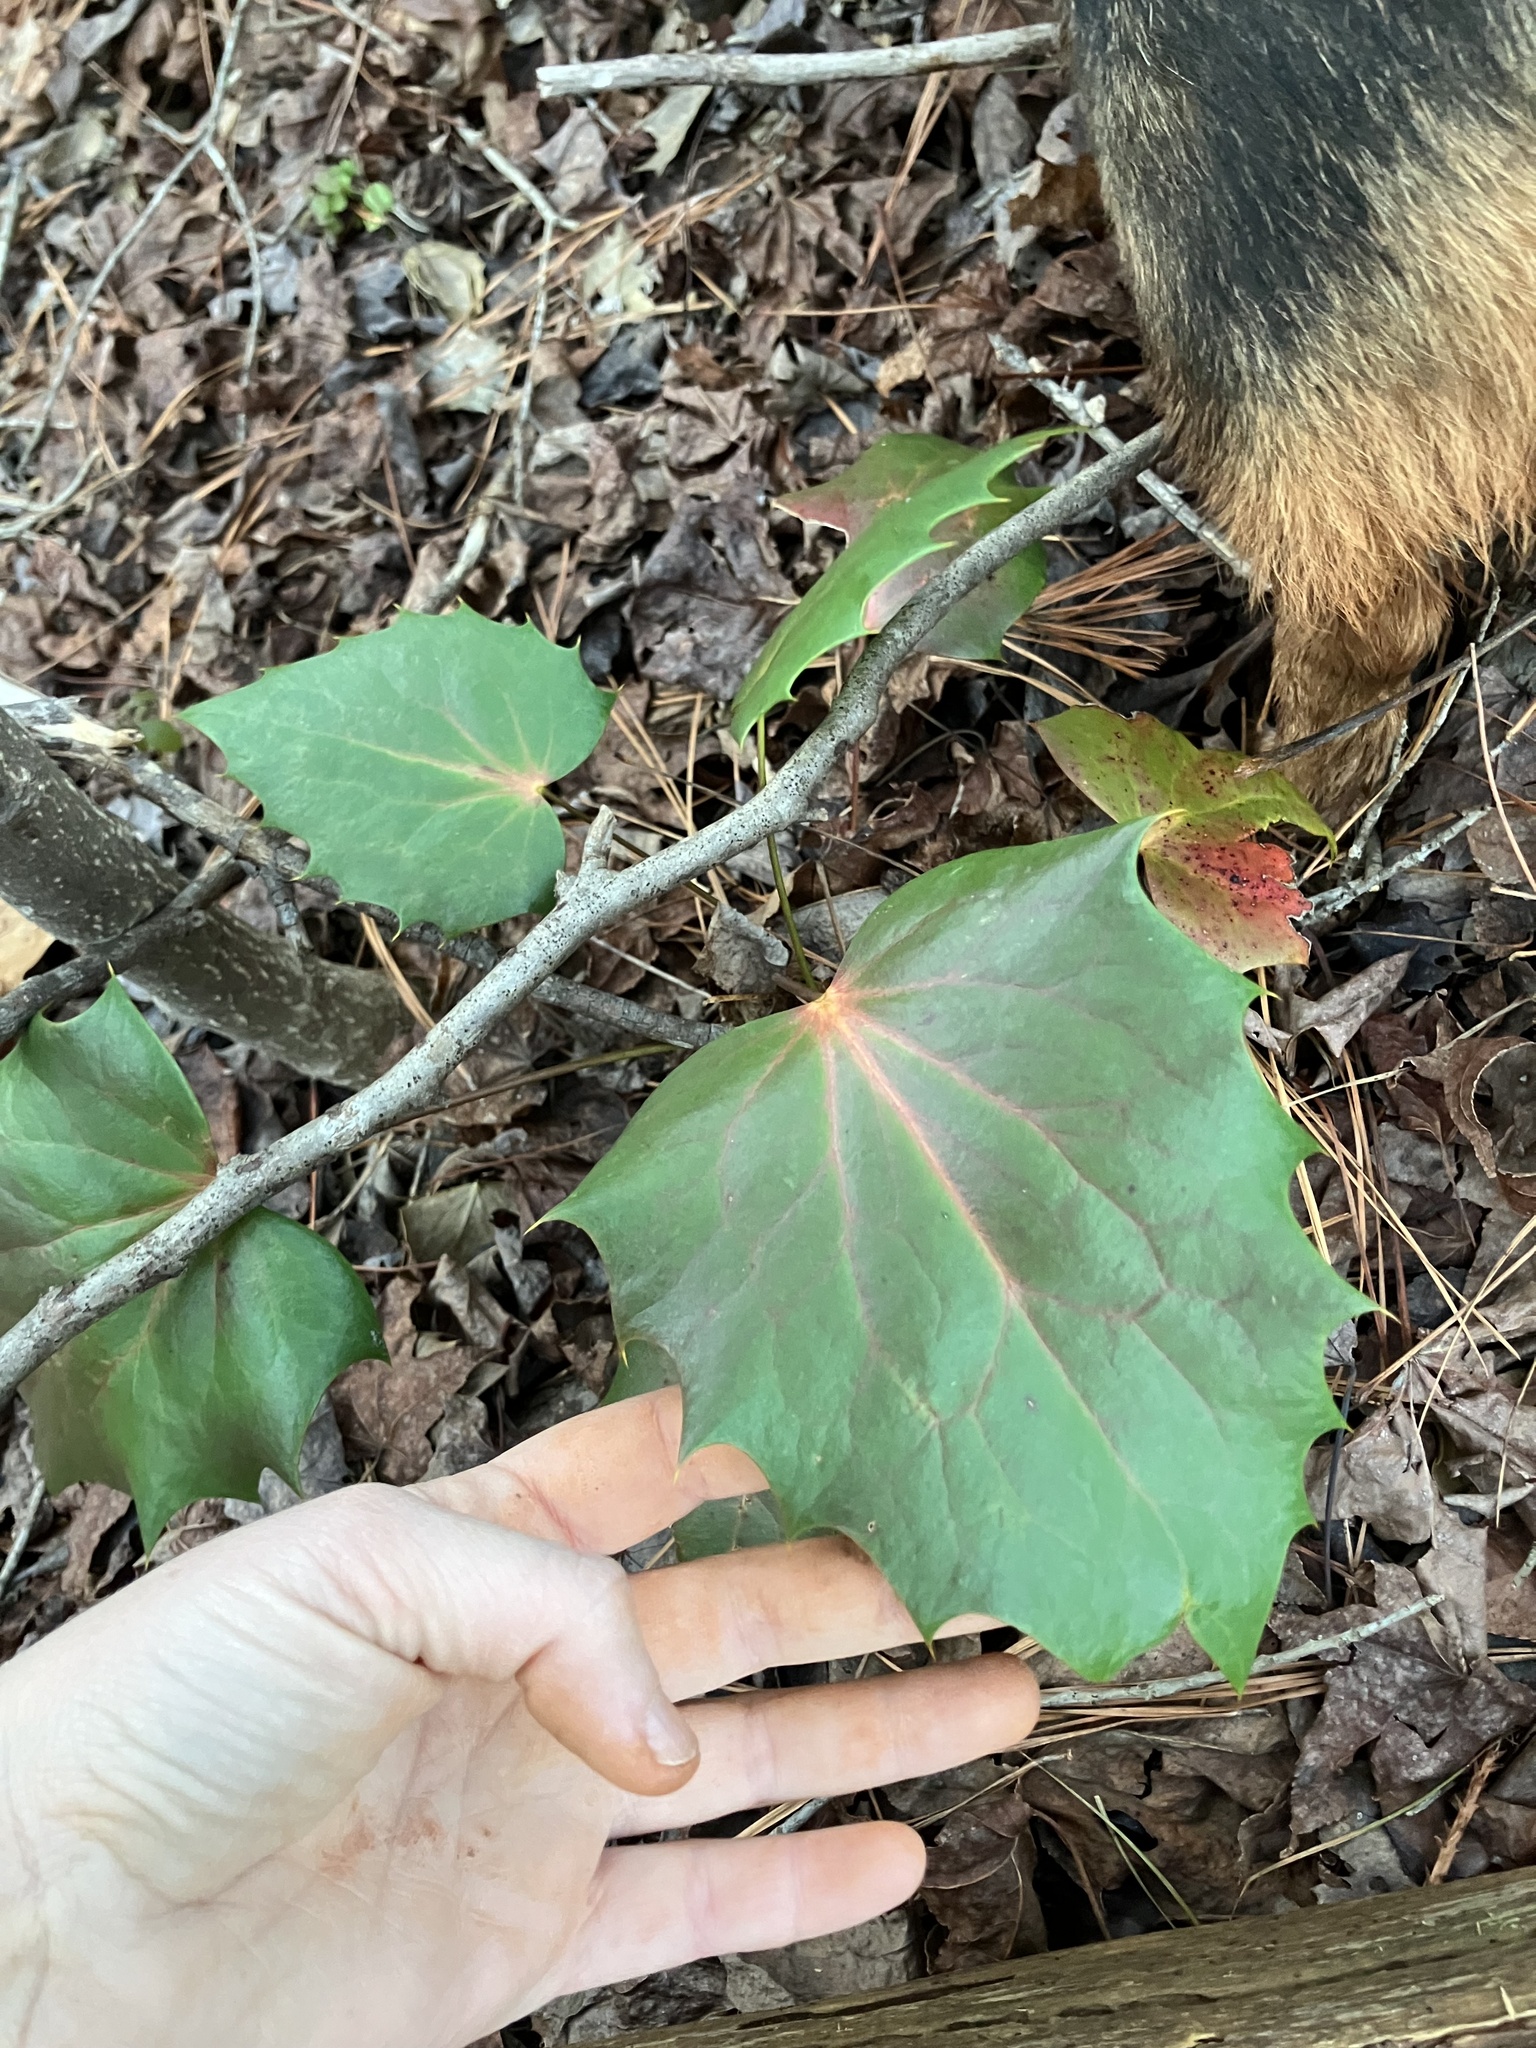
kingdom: Plantae
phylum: Tracheophyta
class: Magnoliopsida
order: Ranunculales
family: Berberidaceae
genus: Mahonia
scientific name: Mahonia bealei
